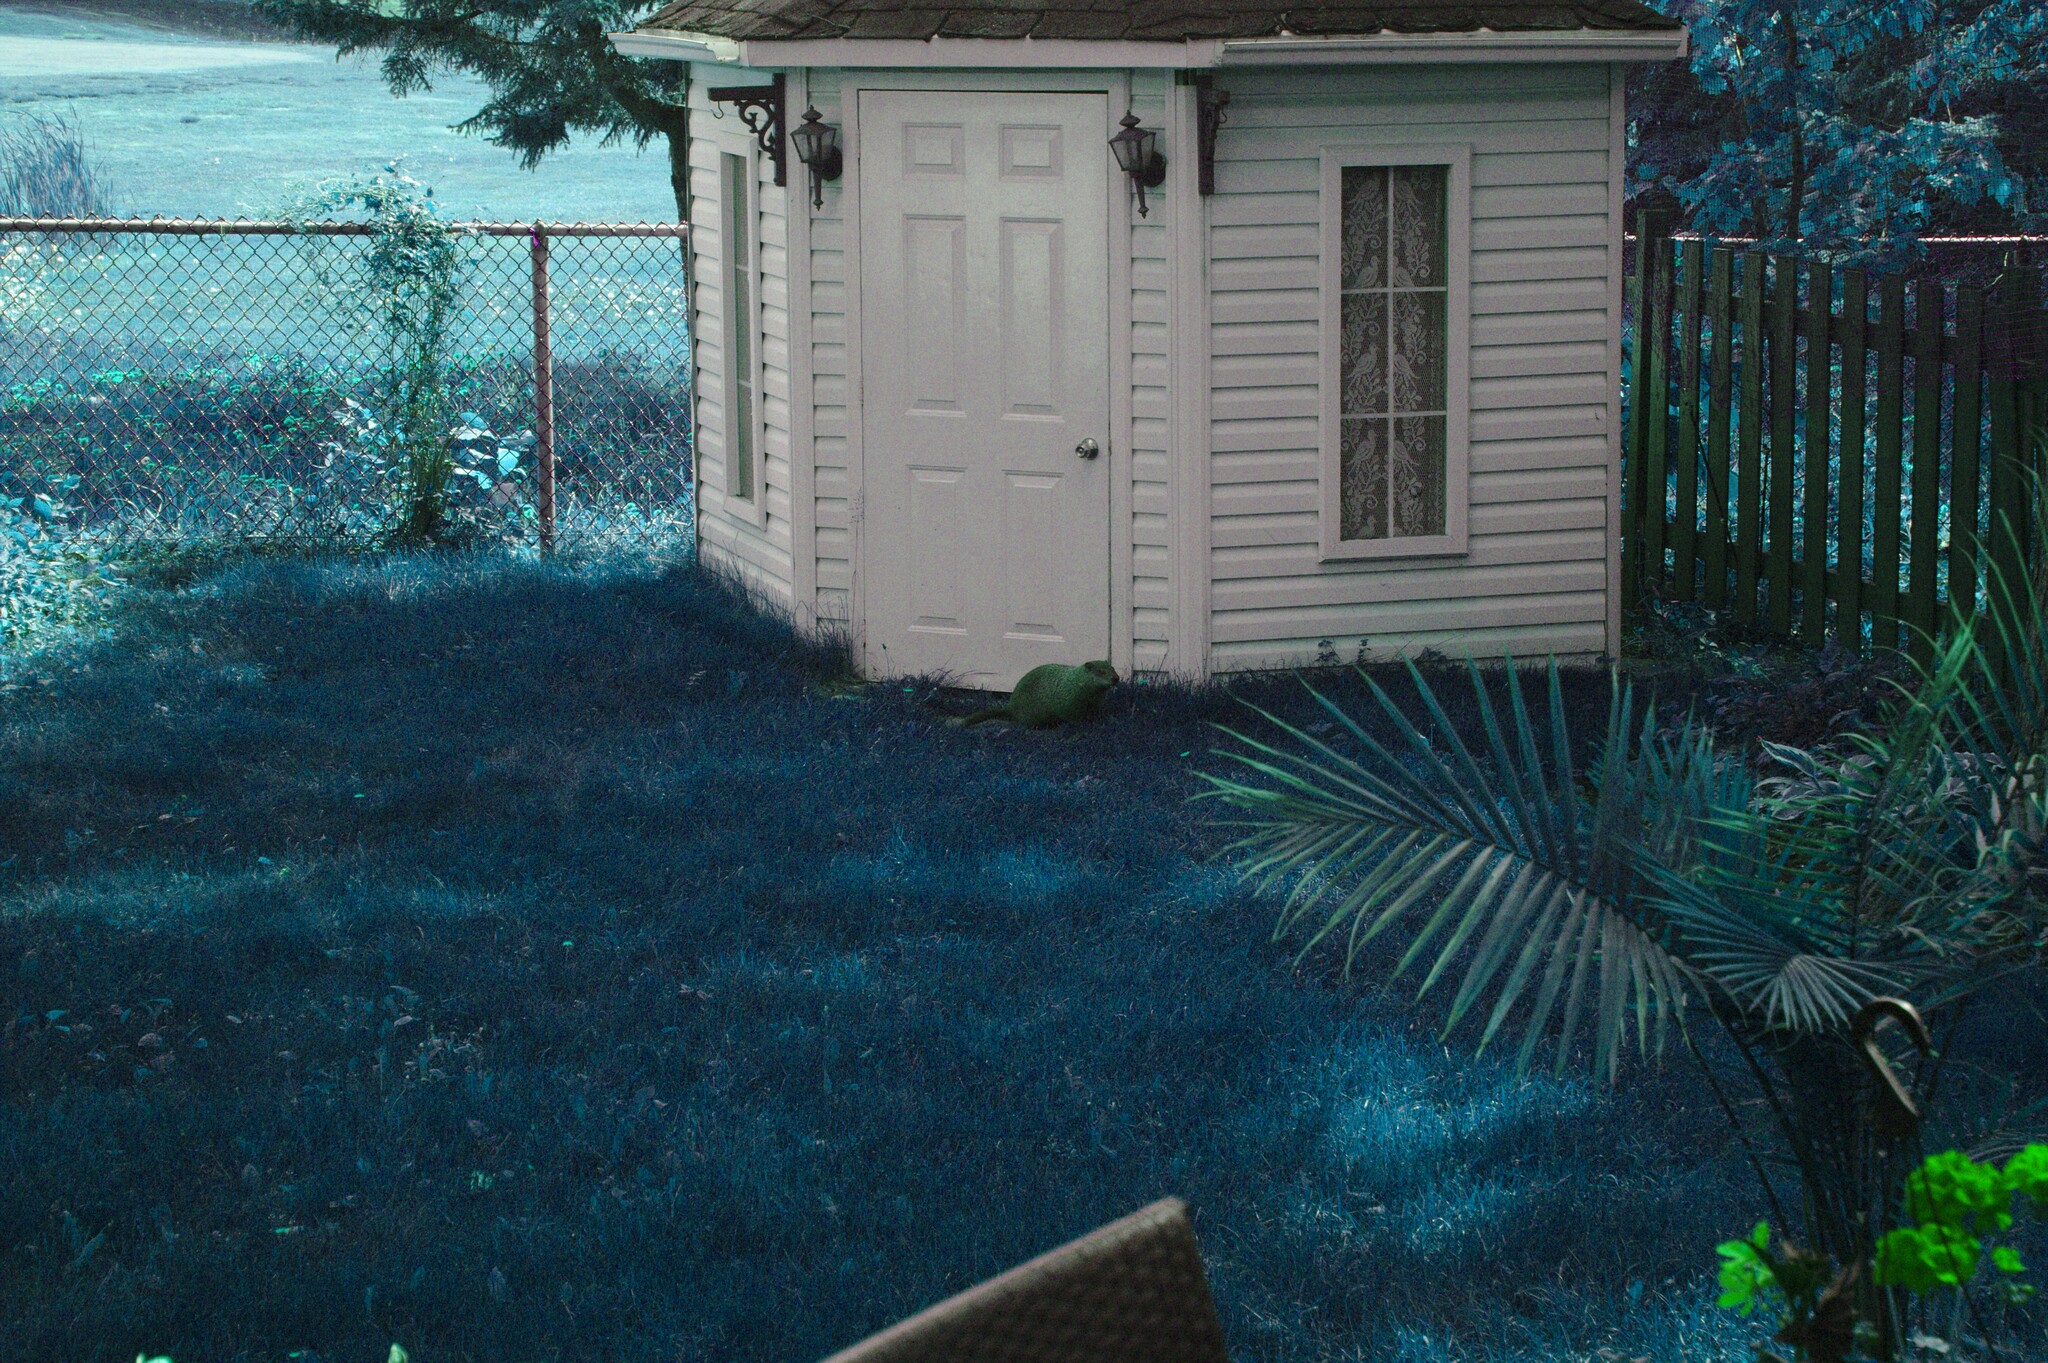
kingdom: Animalia
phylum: Chordata
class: Mammalia
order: Rodentia
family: Sciuridae
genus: Marmota
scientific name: Marmota monax
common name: Groundhog
